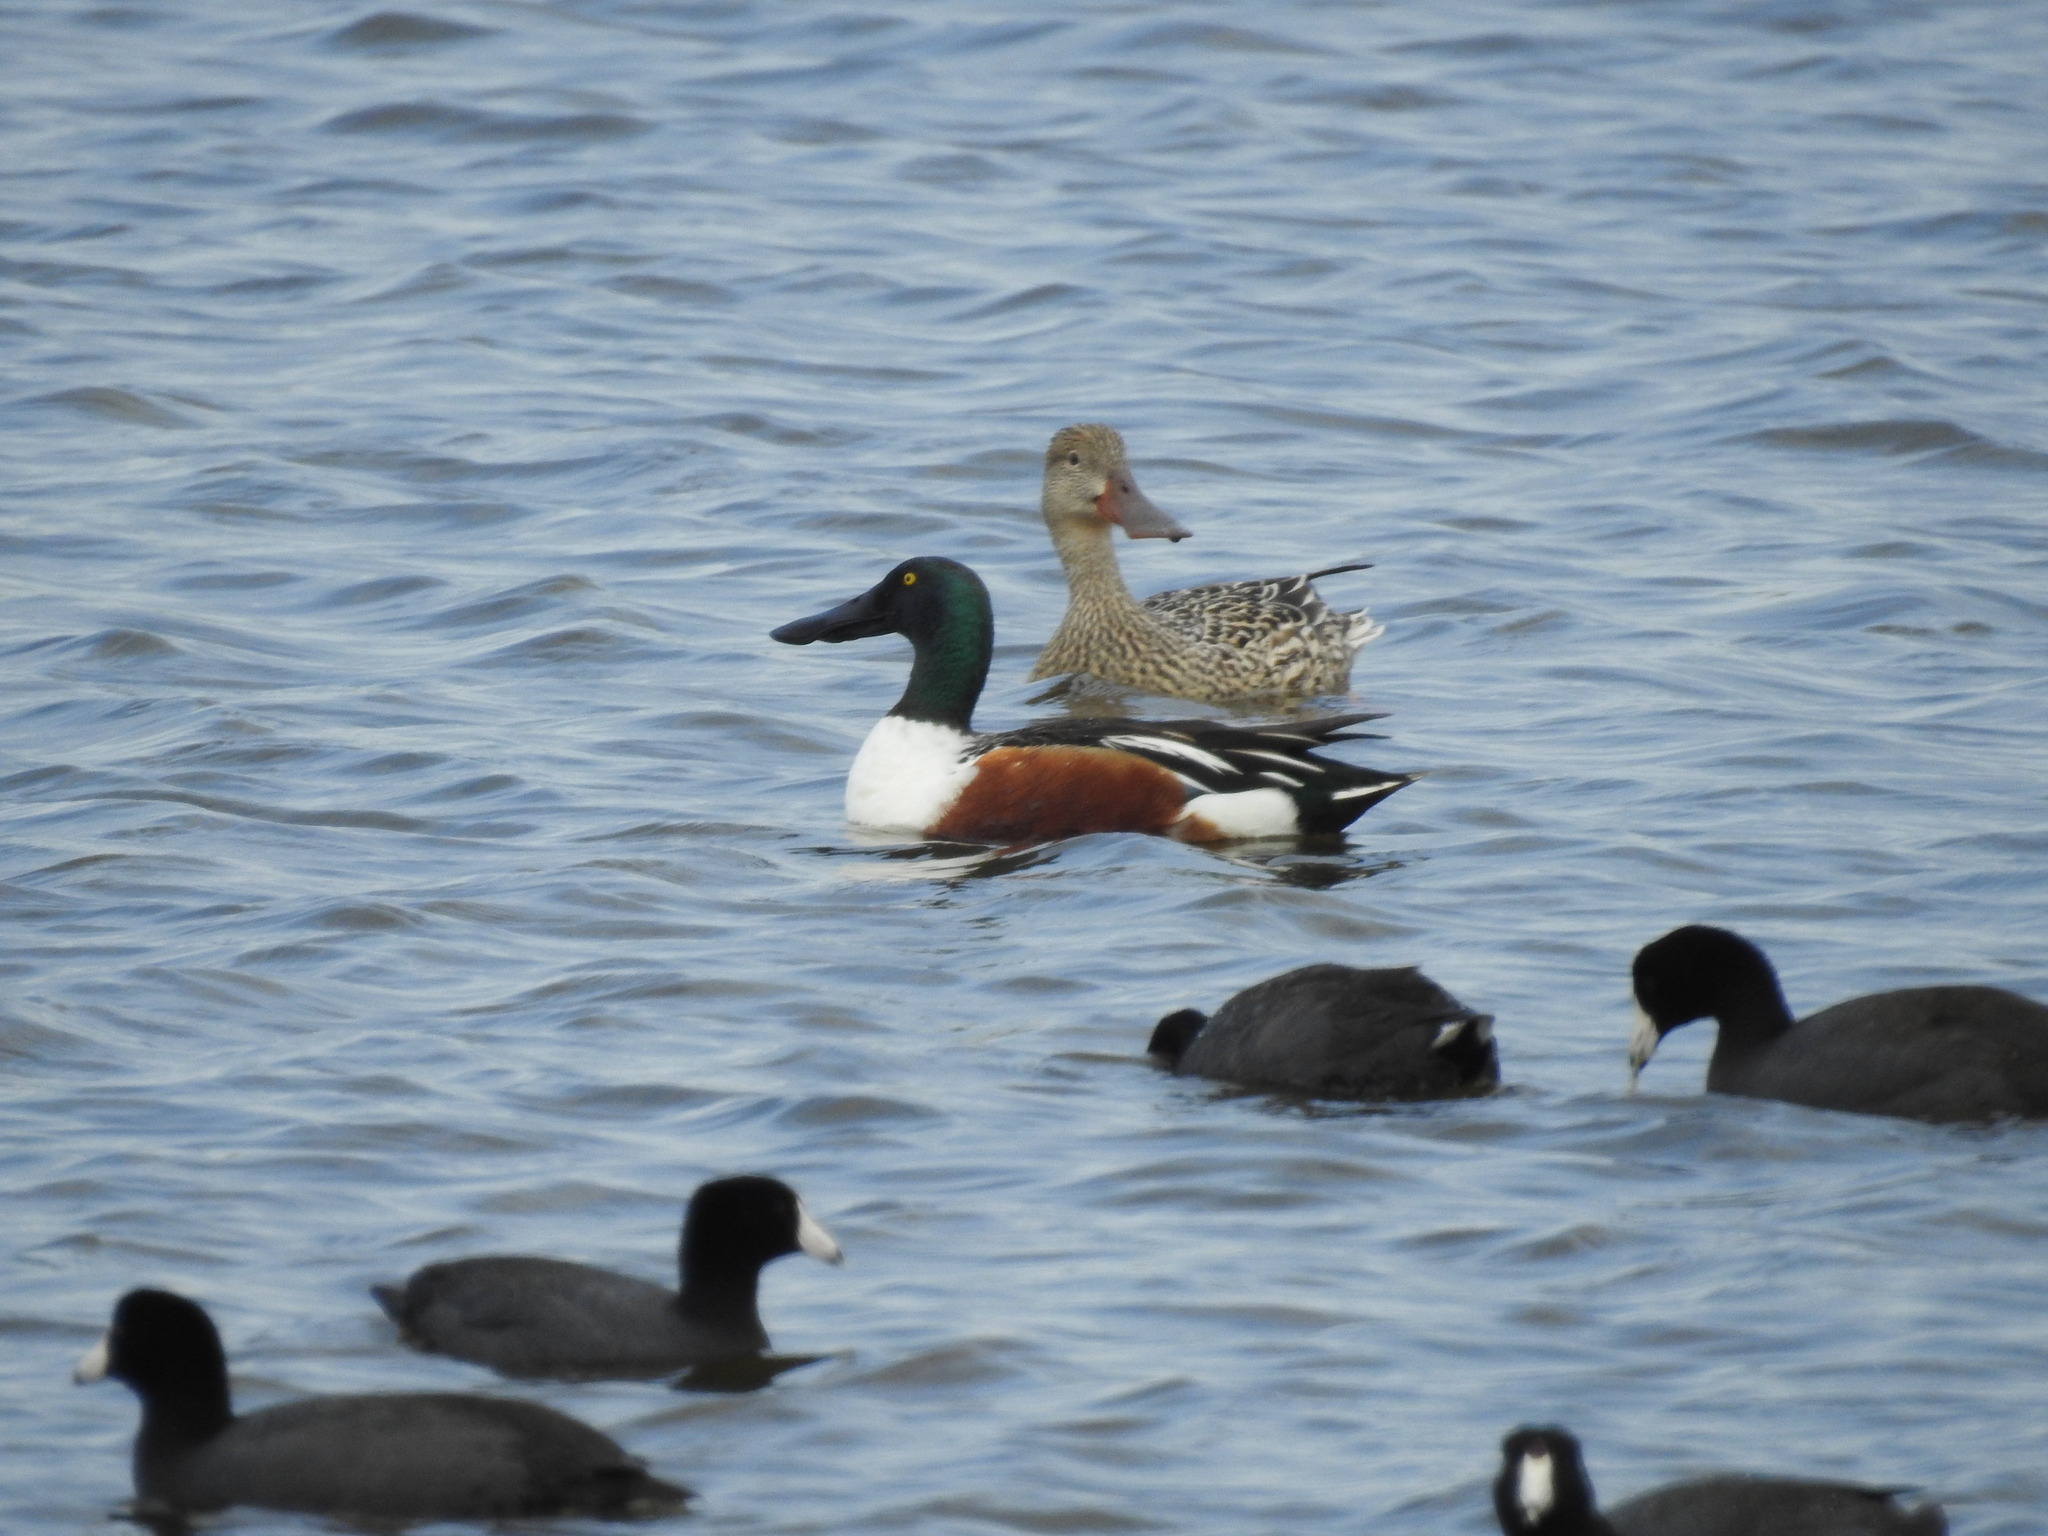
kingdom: Animalia
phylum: Chordata
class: Aves
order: Anseriformes
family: Anatidae
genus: Spatula
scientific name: Spatula clypeata
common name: Northern shoveler
